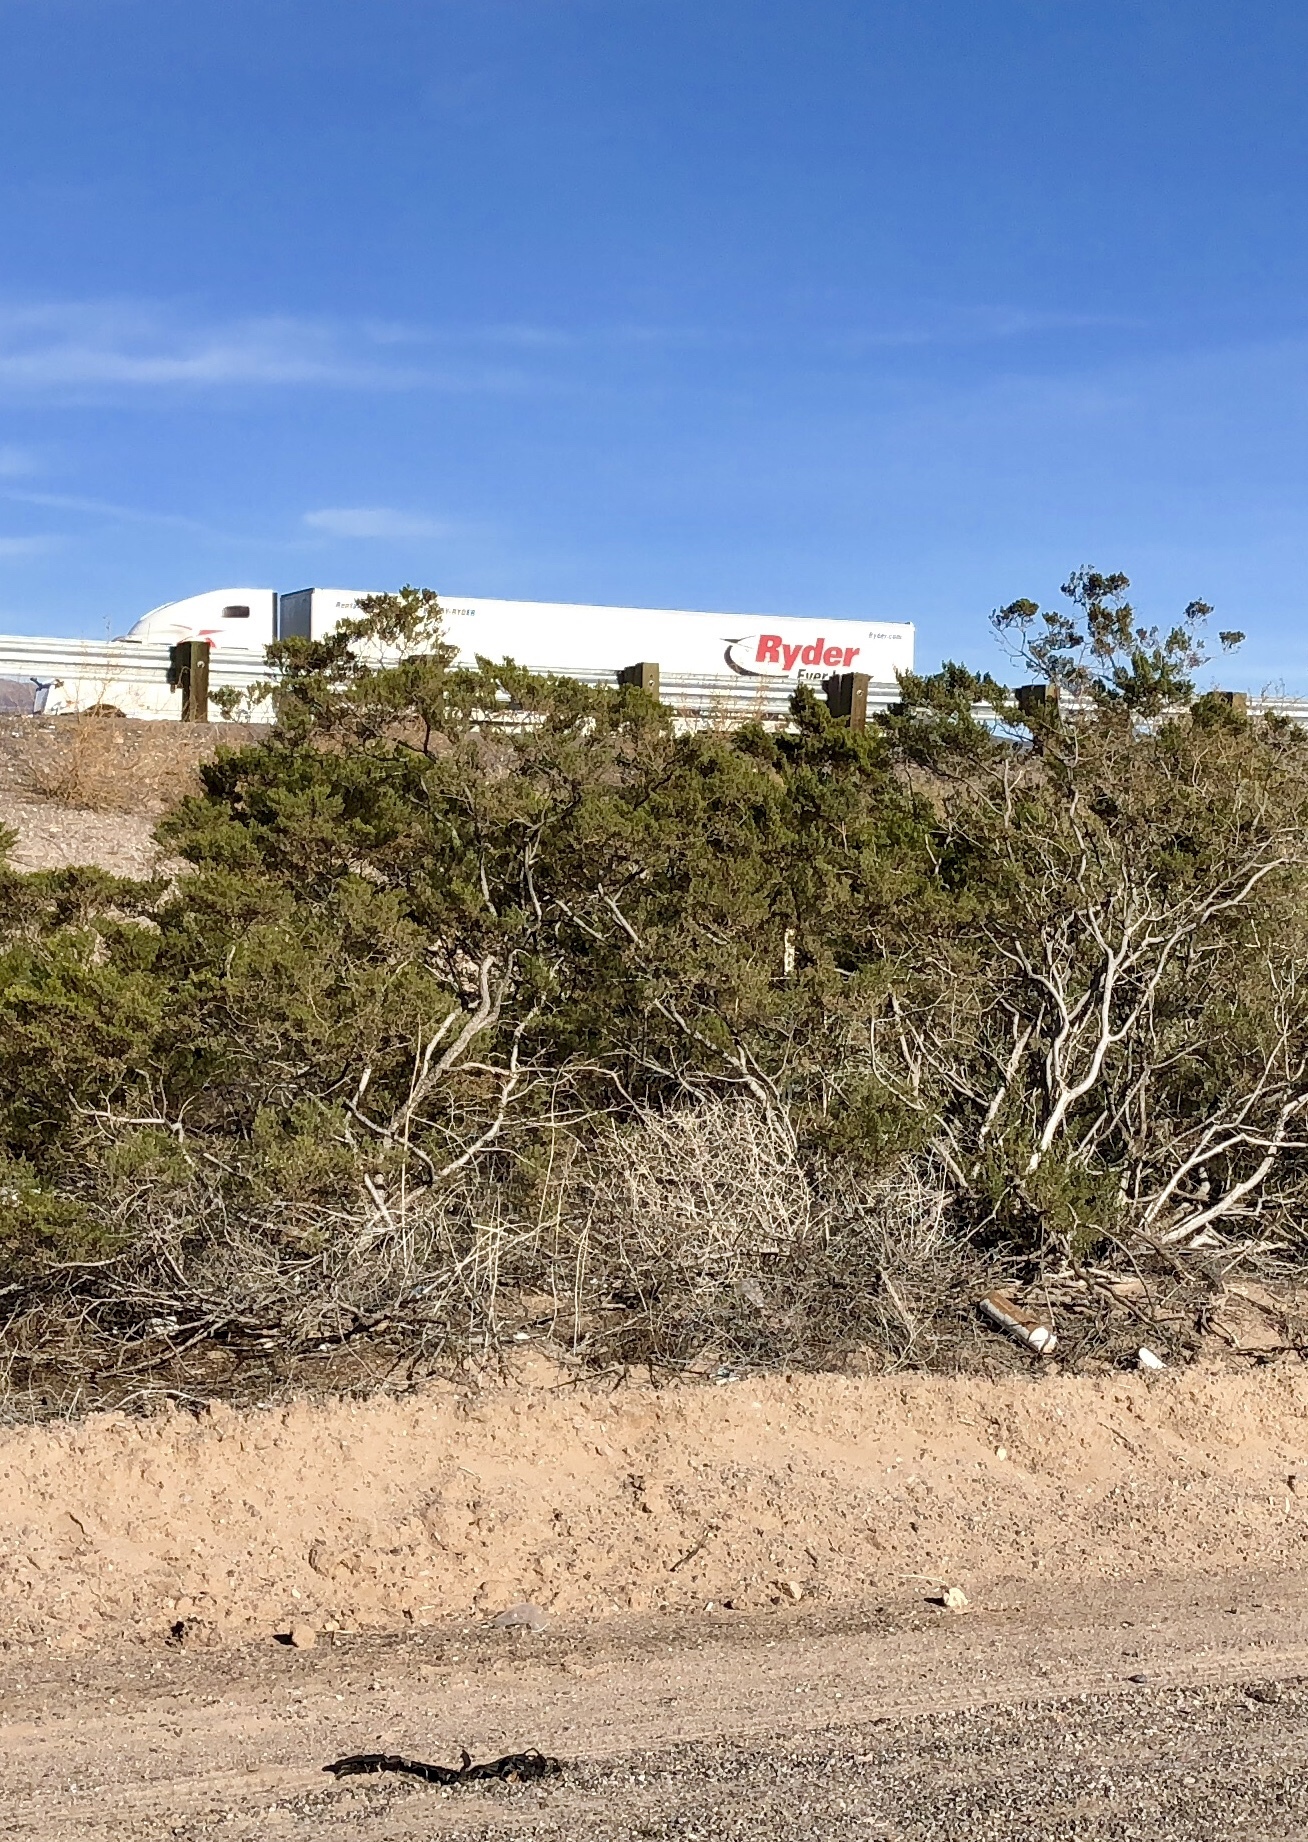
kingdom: Plantae
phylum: Tracheophyta
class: Magnoliopsida
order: Zygophyllales
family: Zygophyllaceae
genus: Larrea
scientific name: Larrea tridentata
